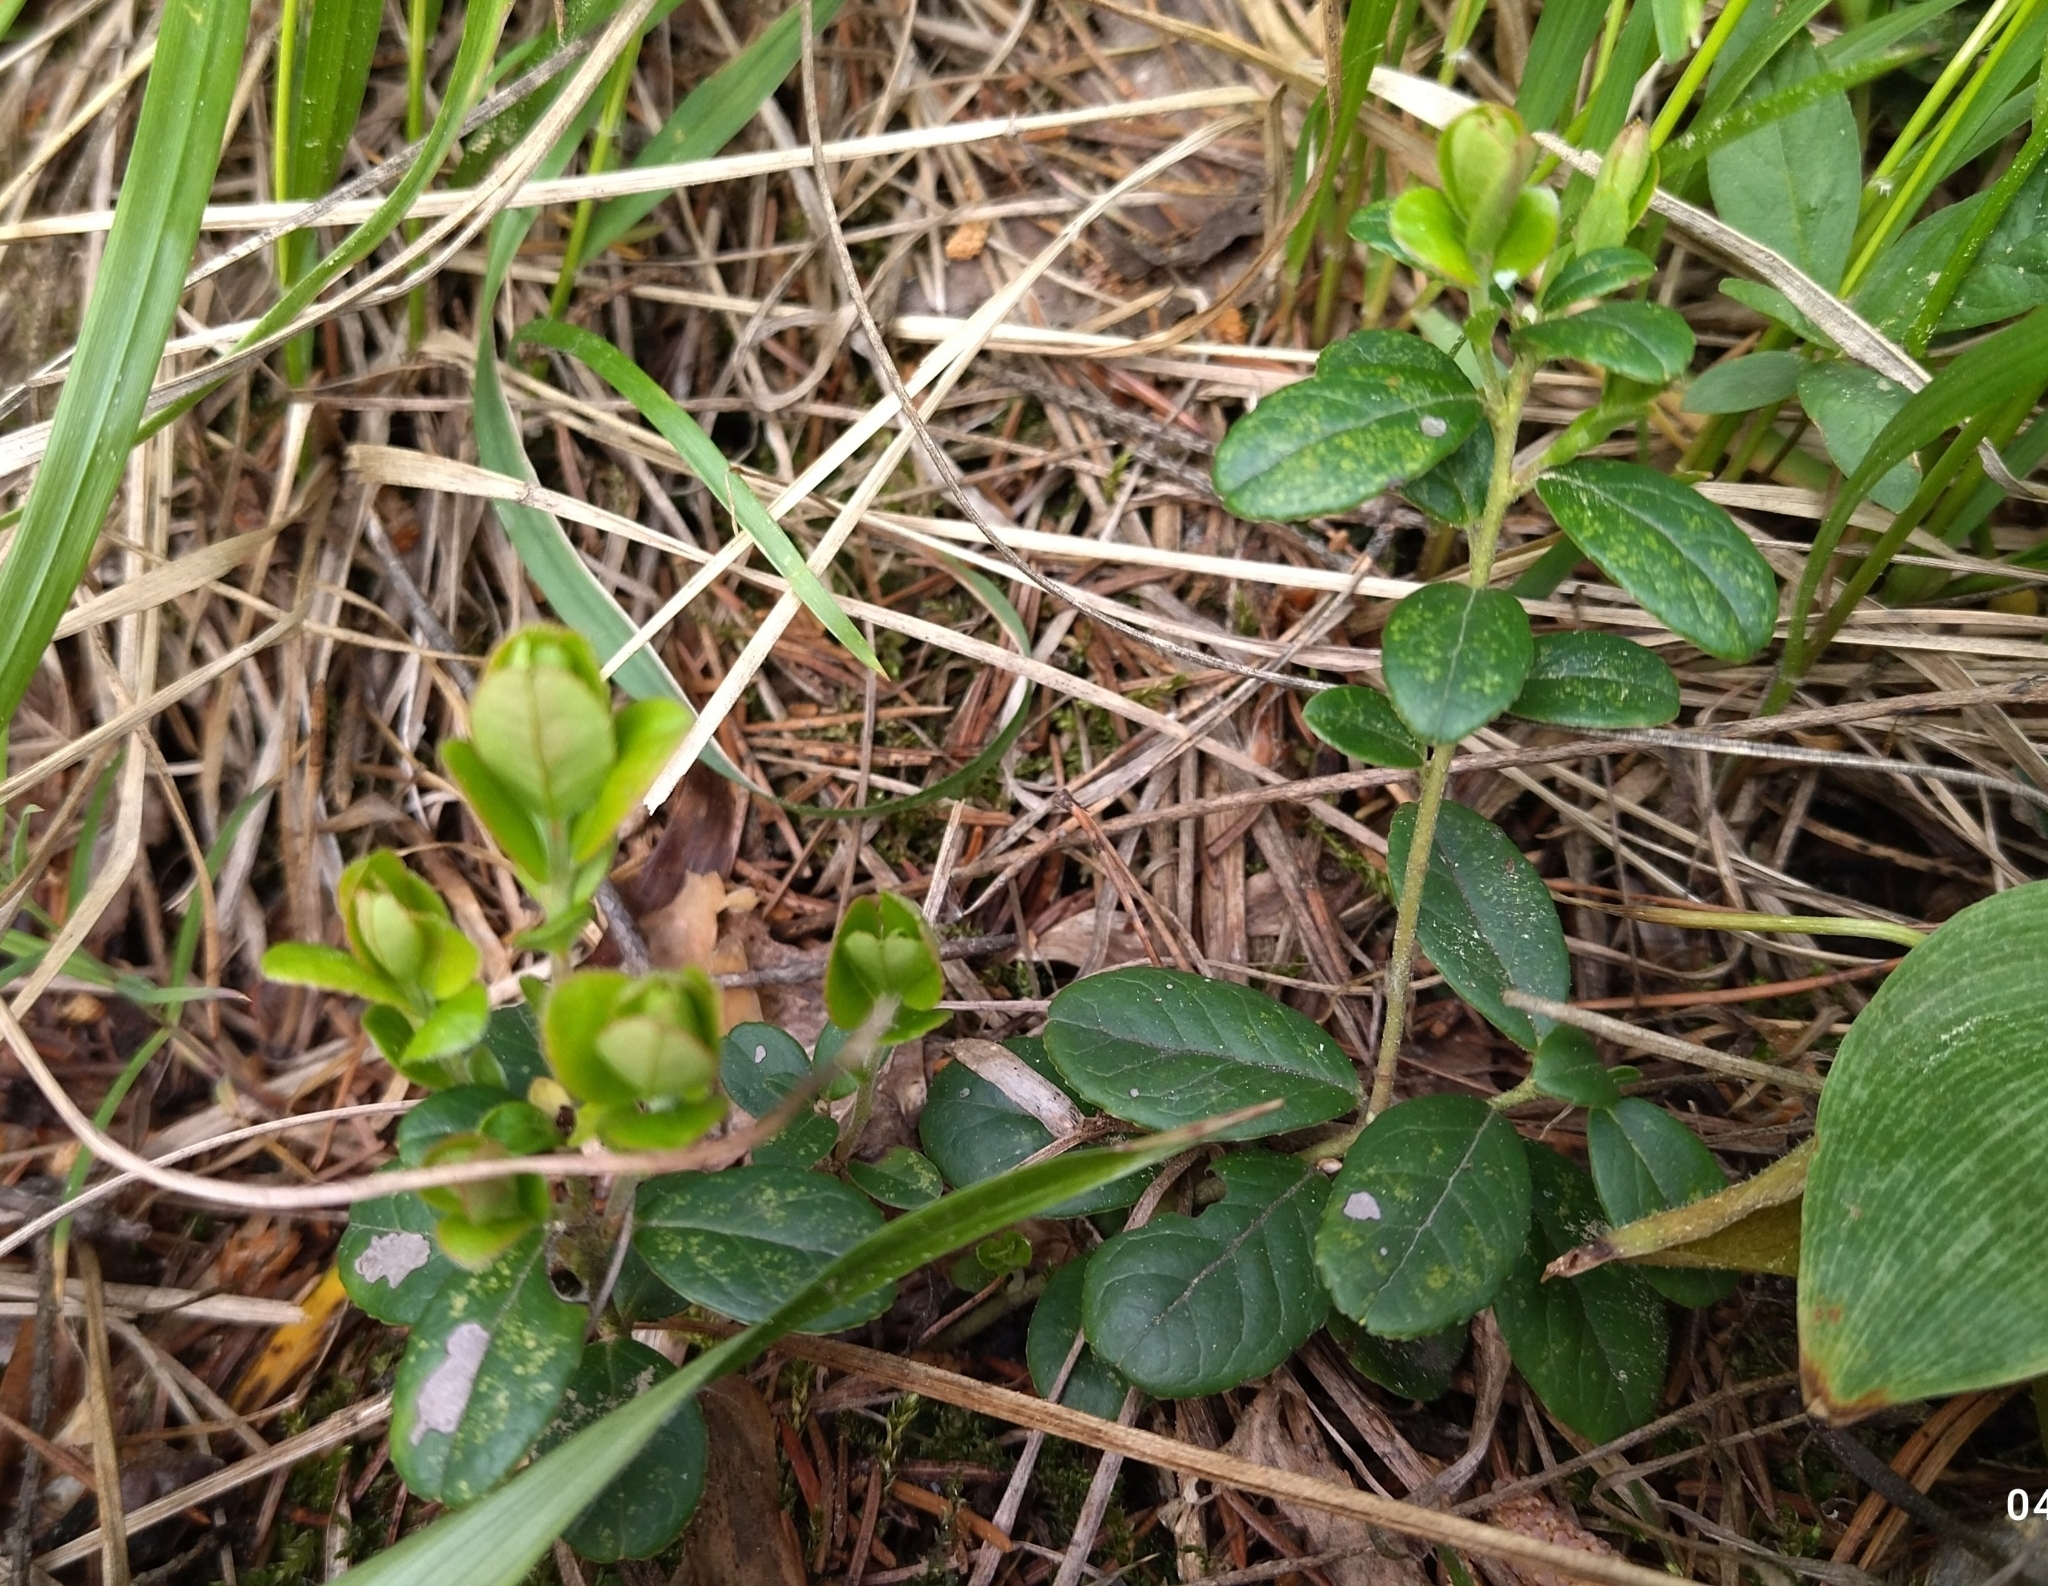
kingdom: Plantae
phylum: Tracheophyta
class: Magnoliopsida
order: Ericales
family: Ericaceae
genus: Vaccinium
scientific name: Vaccinium vitis-idaea
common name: Cowberry
